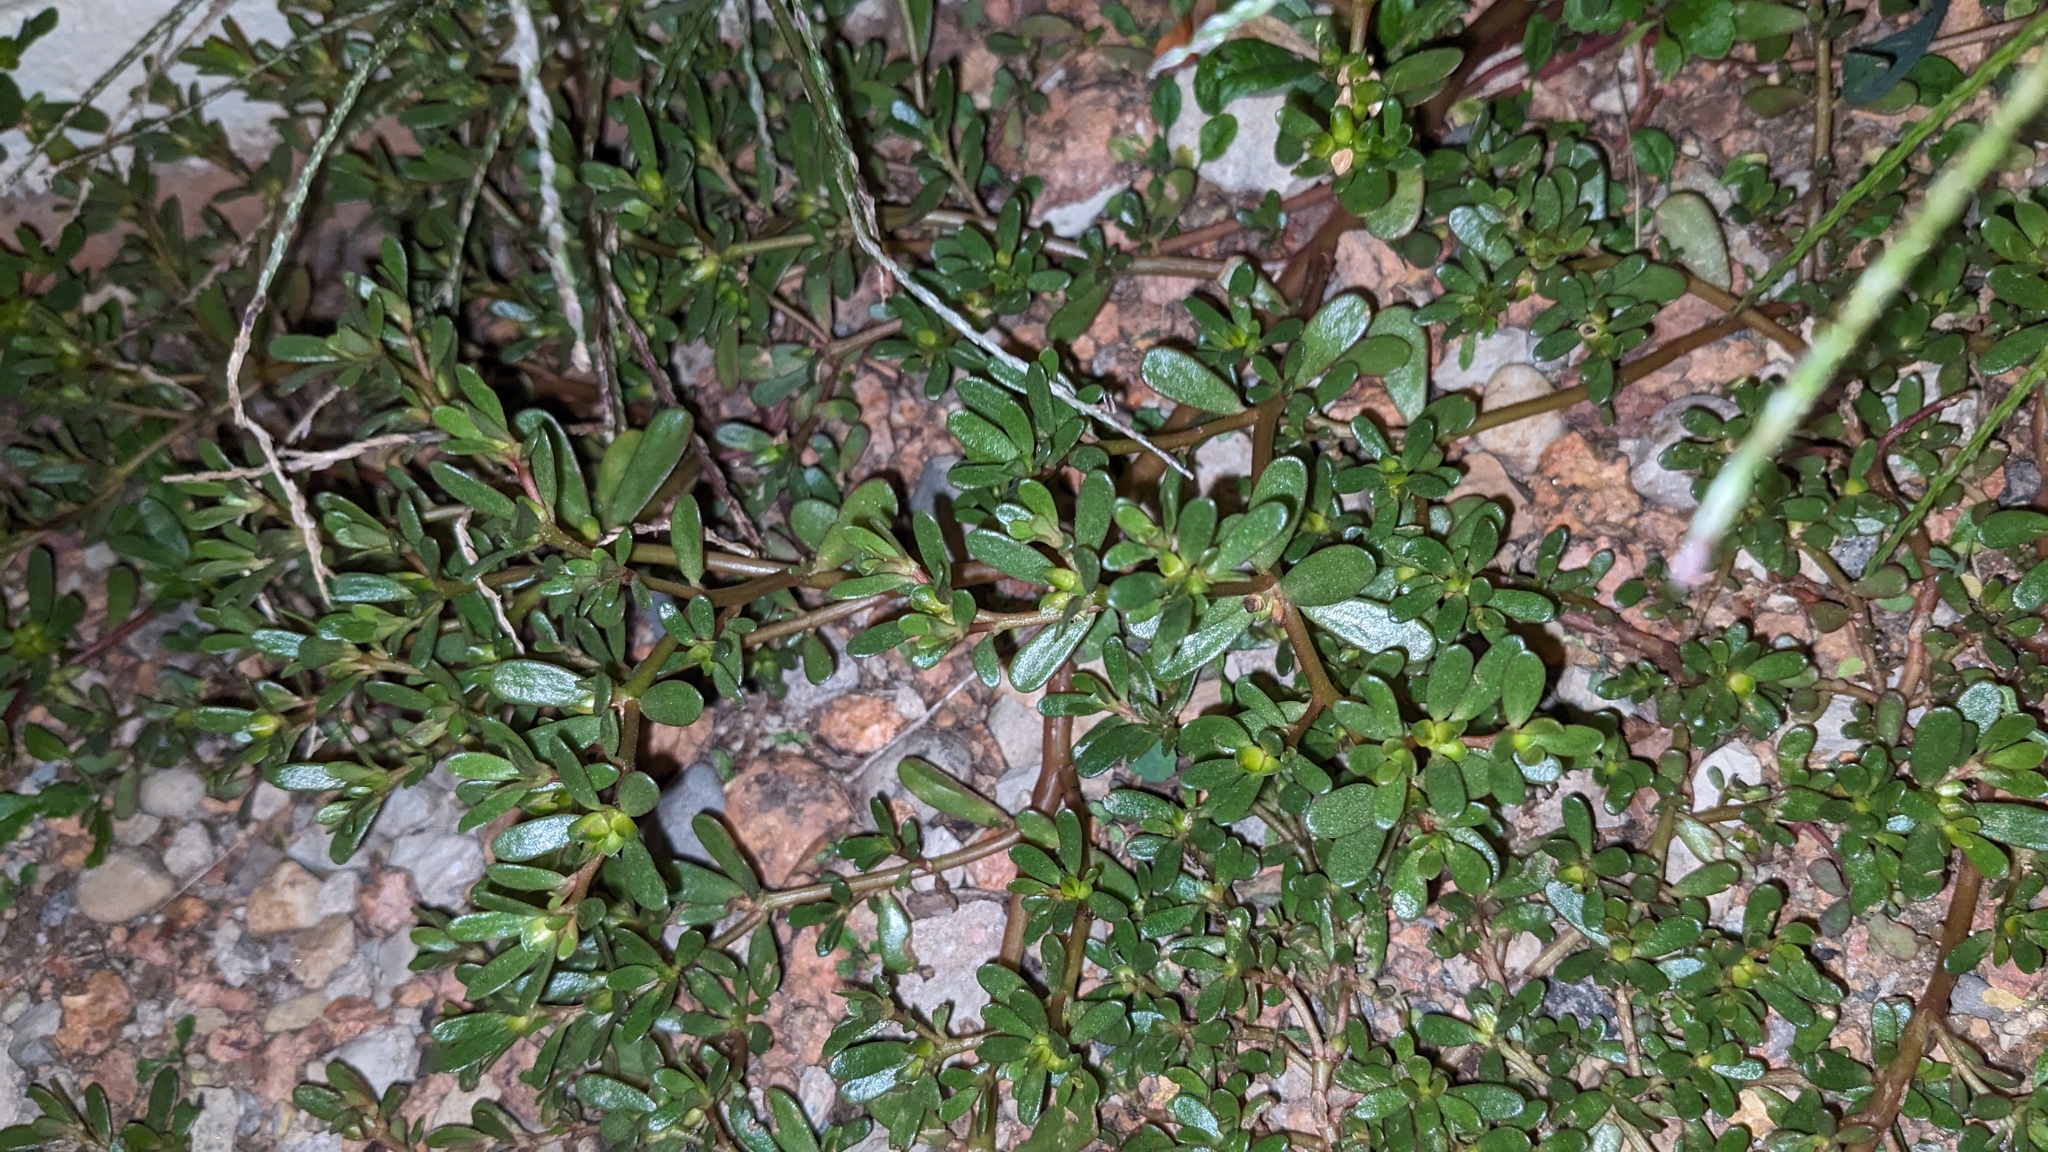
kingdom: Plantae
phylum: Tracheophyta
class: Magnoliopsida
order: Caryophyllales
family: Portulacaceae
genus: Portulaca
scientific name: Portulaca oleracea
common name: Common purslane
